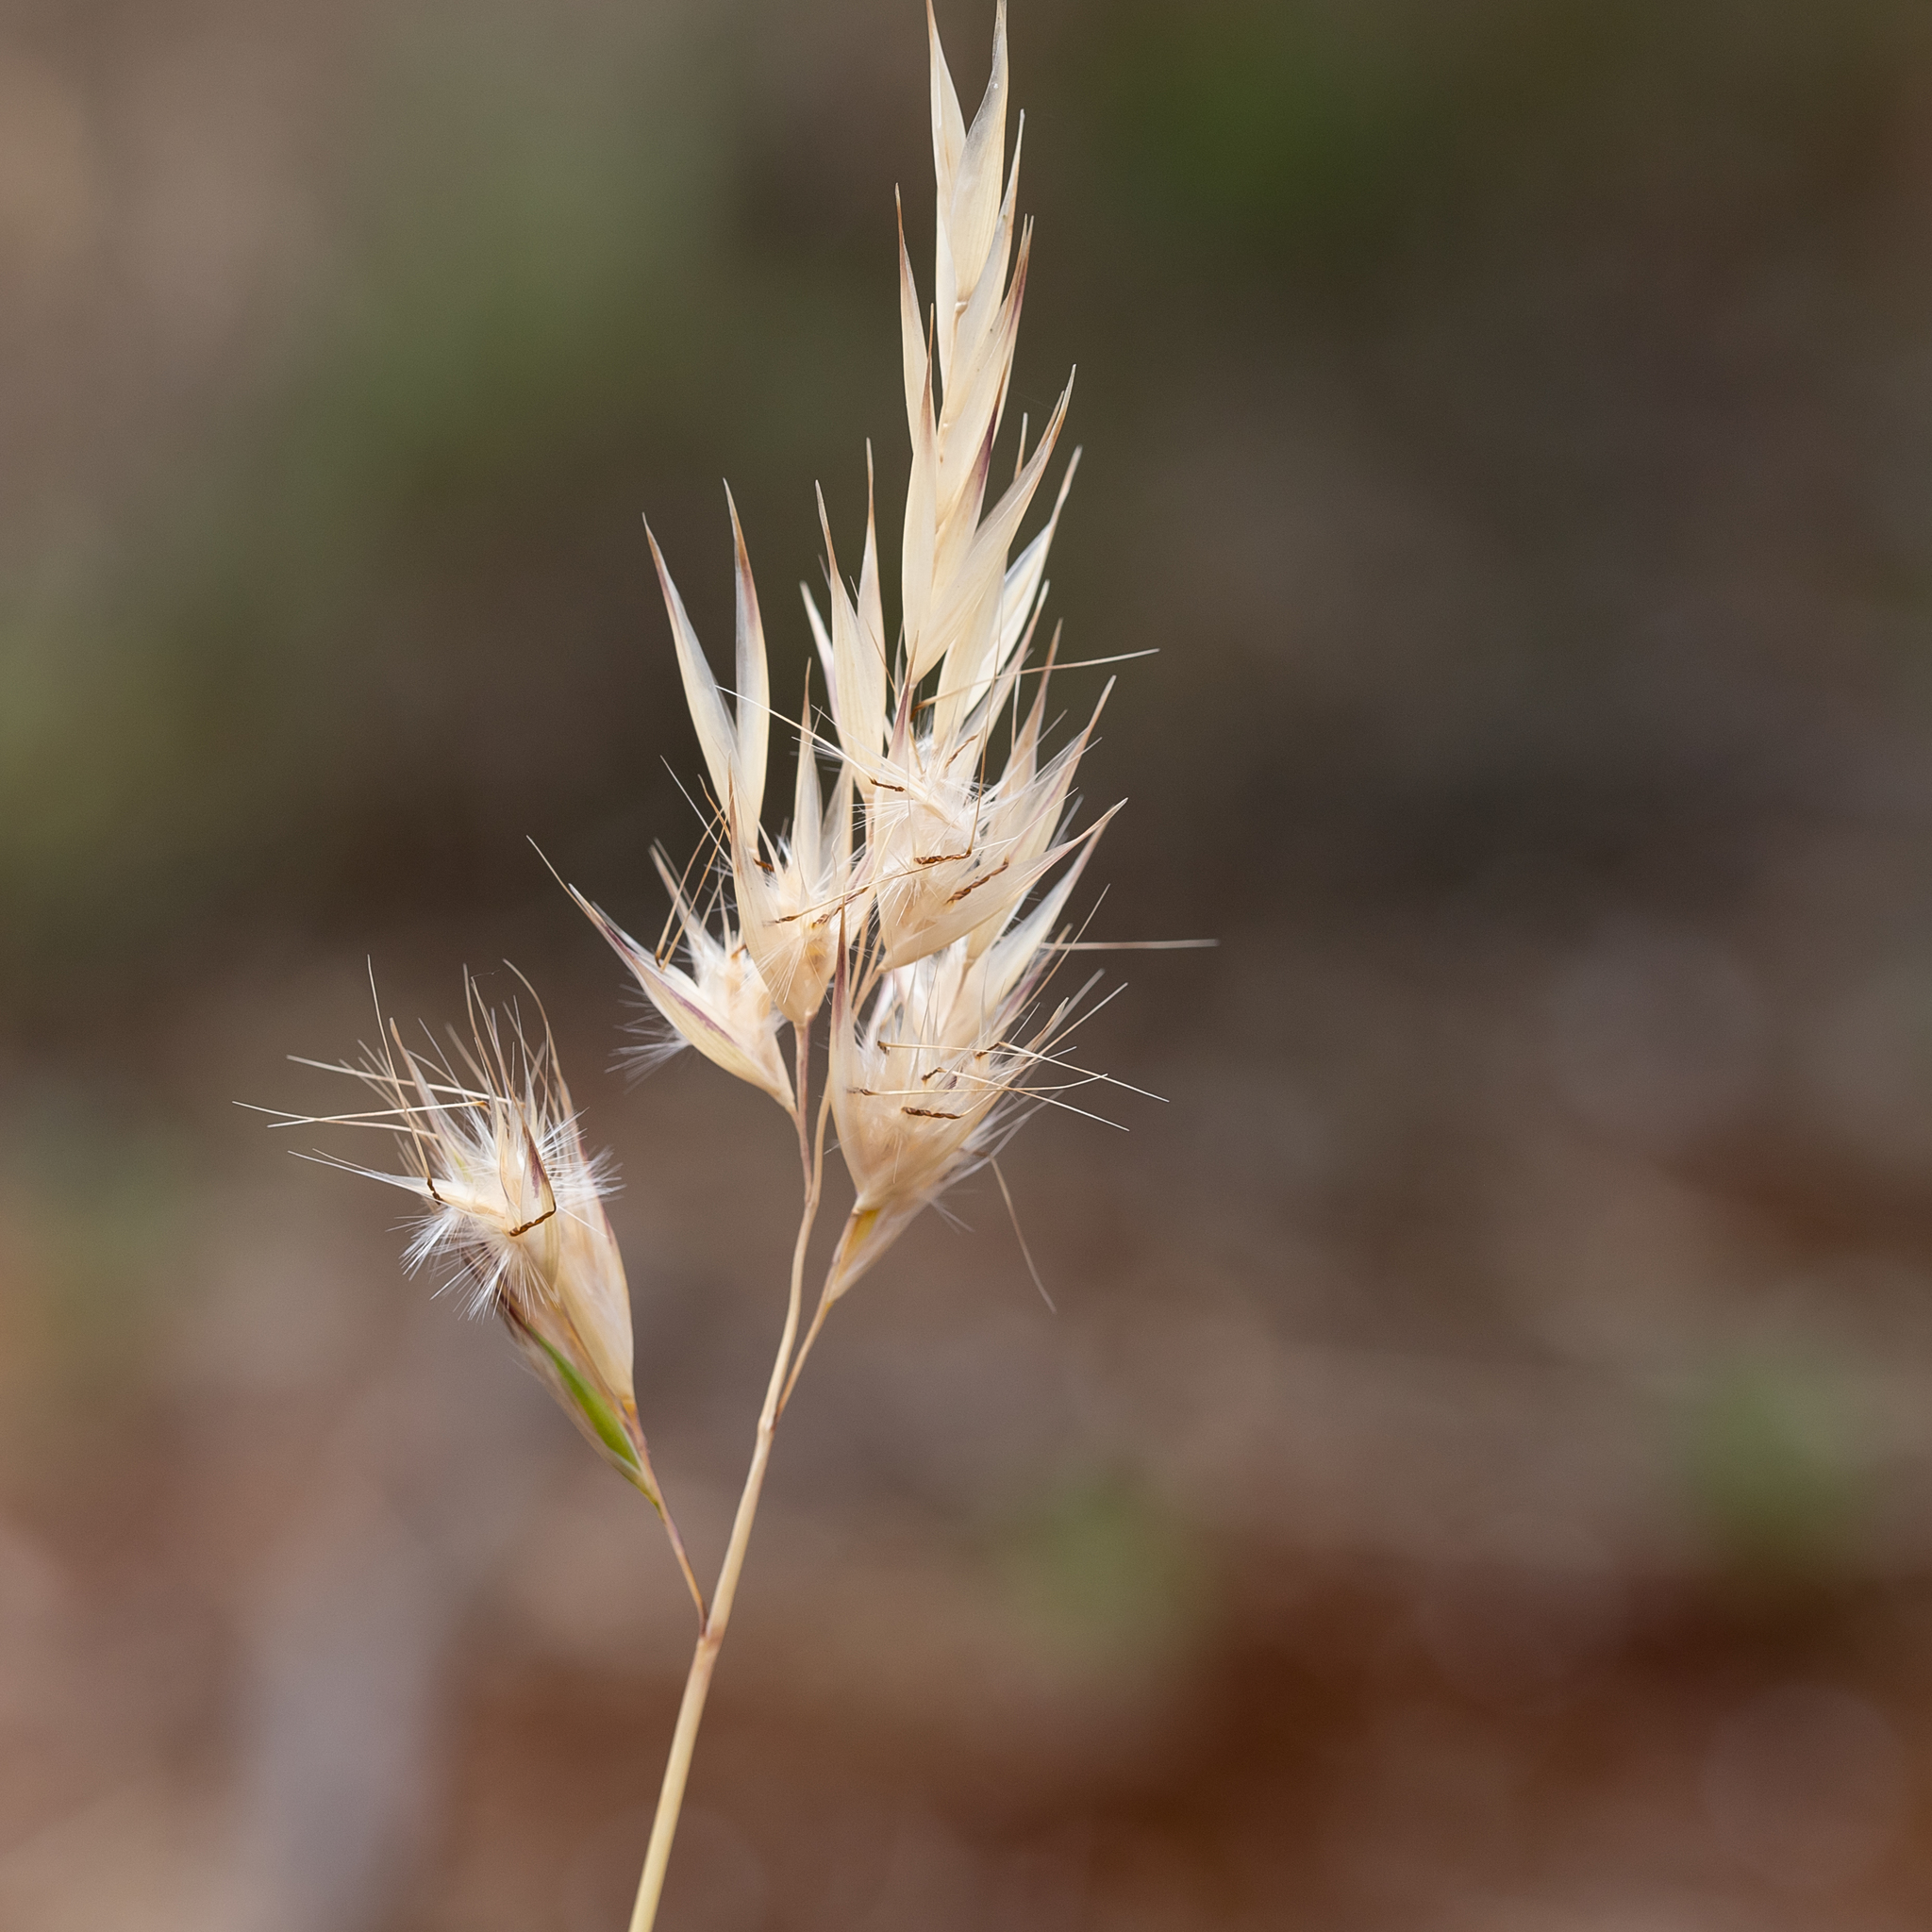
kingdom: Plantae
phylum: Tracheophyta
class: Liliopsida
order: Poales
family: Poaceae
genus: Rytidosperma
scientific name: Rytidosperma caespitosum
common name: Tufted wallaby grass
